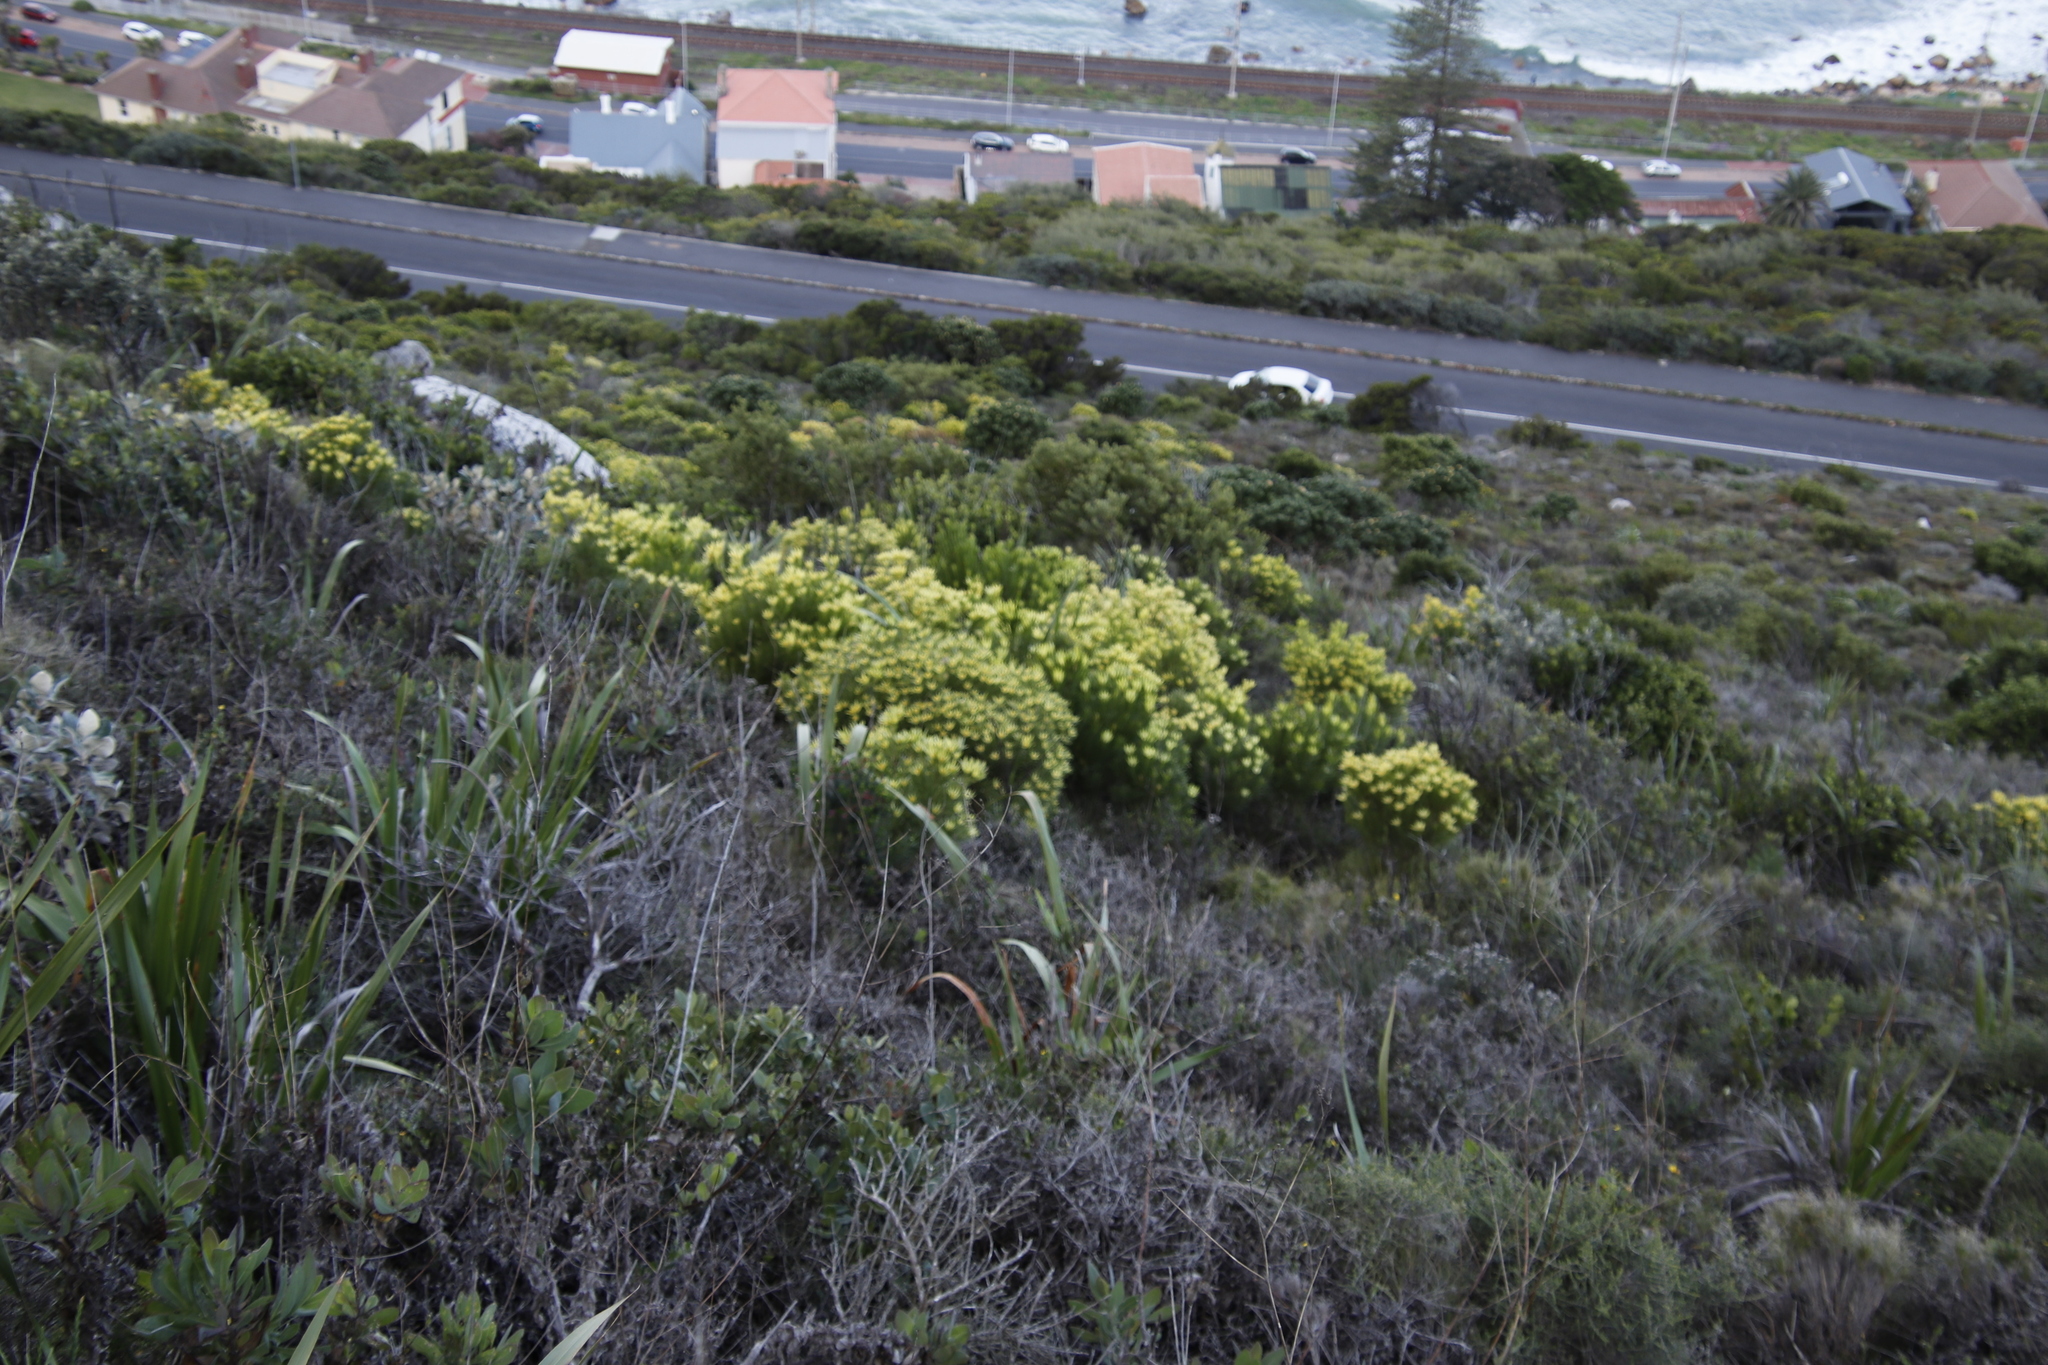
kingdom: Plantae
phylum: Tracheophyta
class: Magnoliopsida
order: Proteales
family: Proteaceae
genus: Leucadendron
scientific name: Leucadendron xanthoconus
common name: Sickle-leaf conebush
